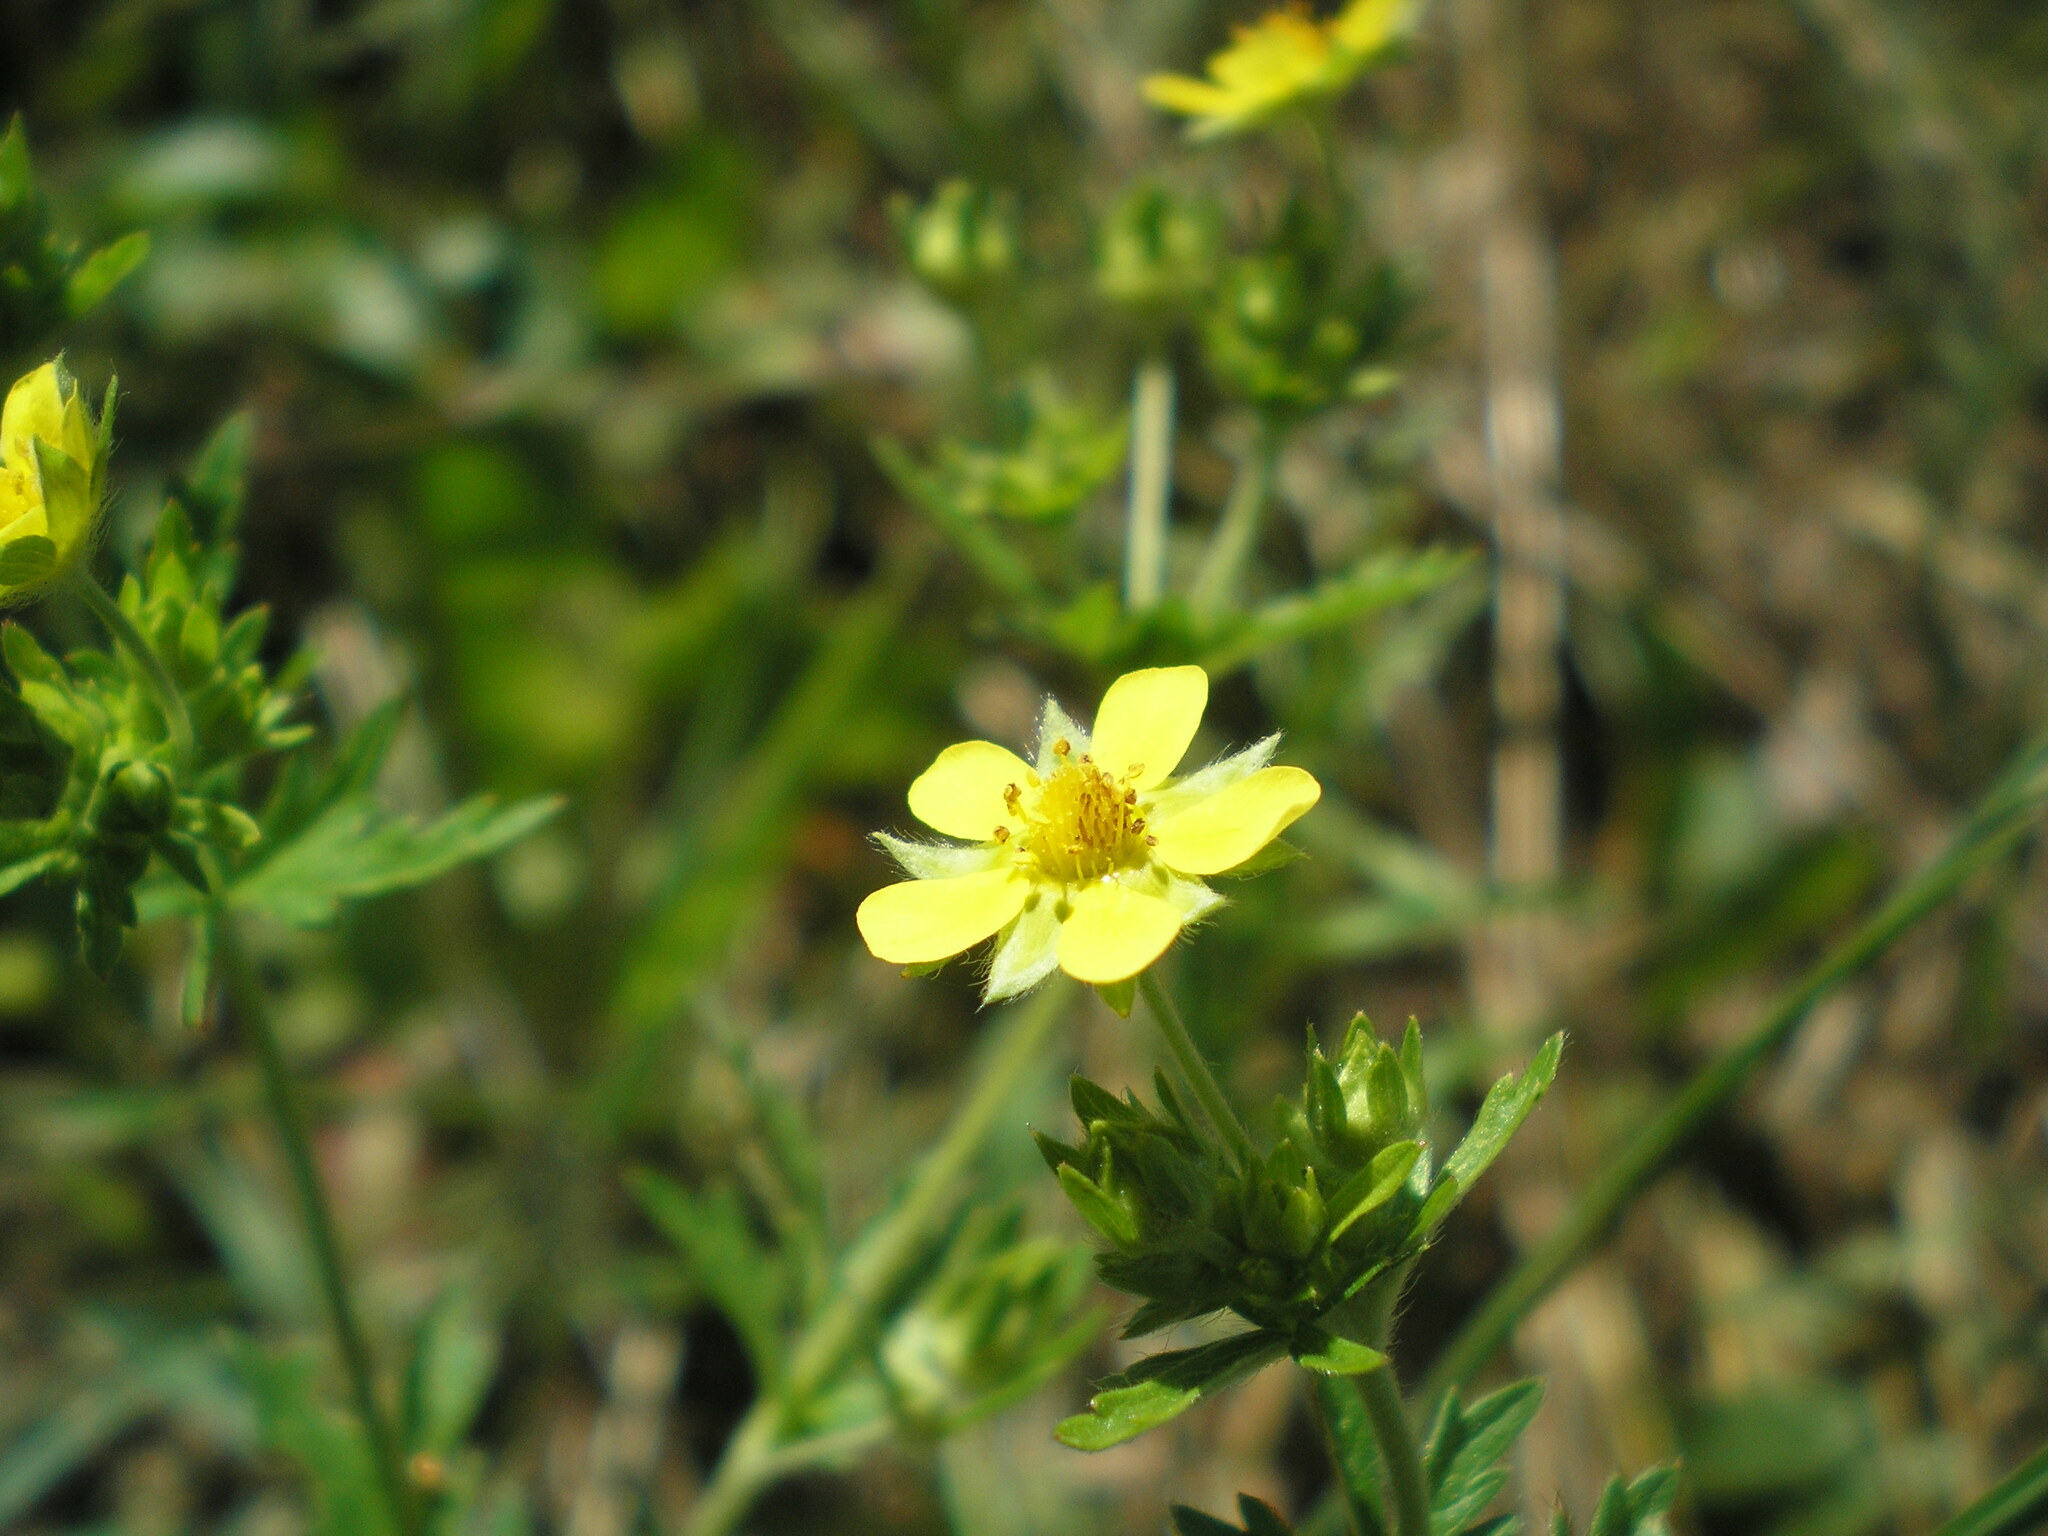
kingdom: Plantae
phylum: Tracheophyta
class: Magnoliopsida
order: Rosales
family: Rosaceae
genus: Potentilla
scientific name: Potentilla argentea
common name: Hoary cinquefoil
